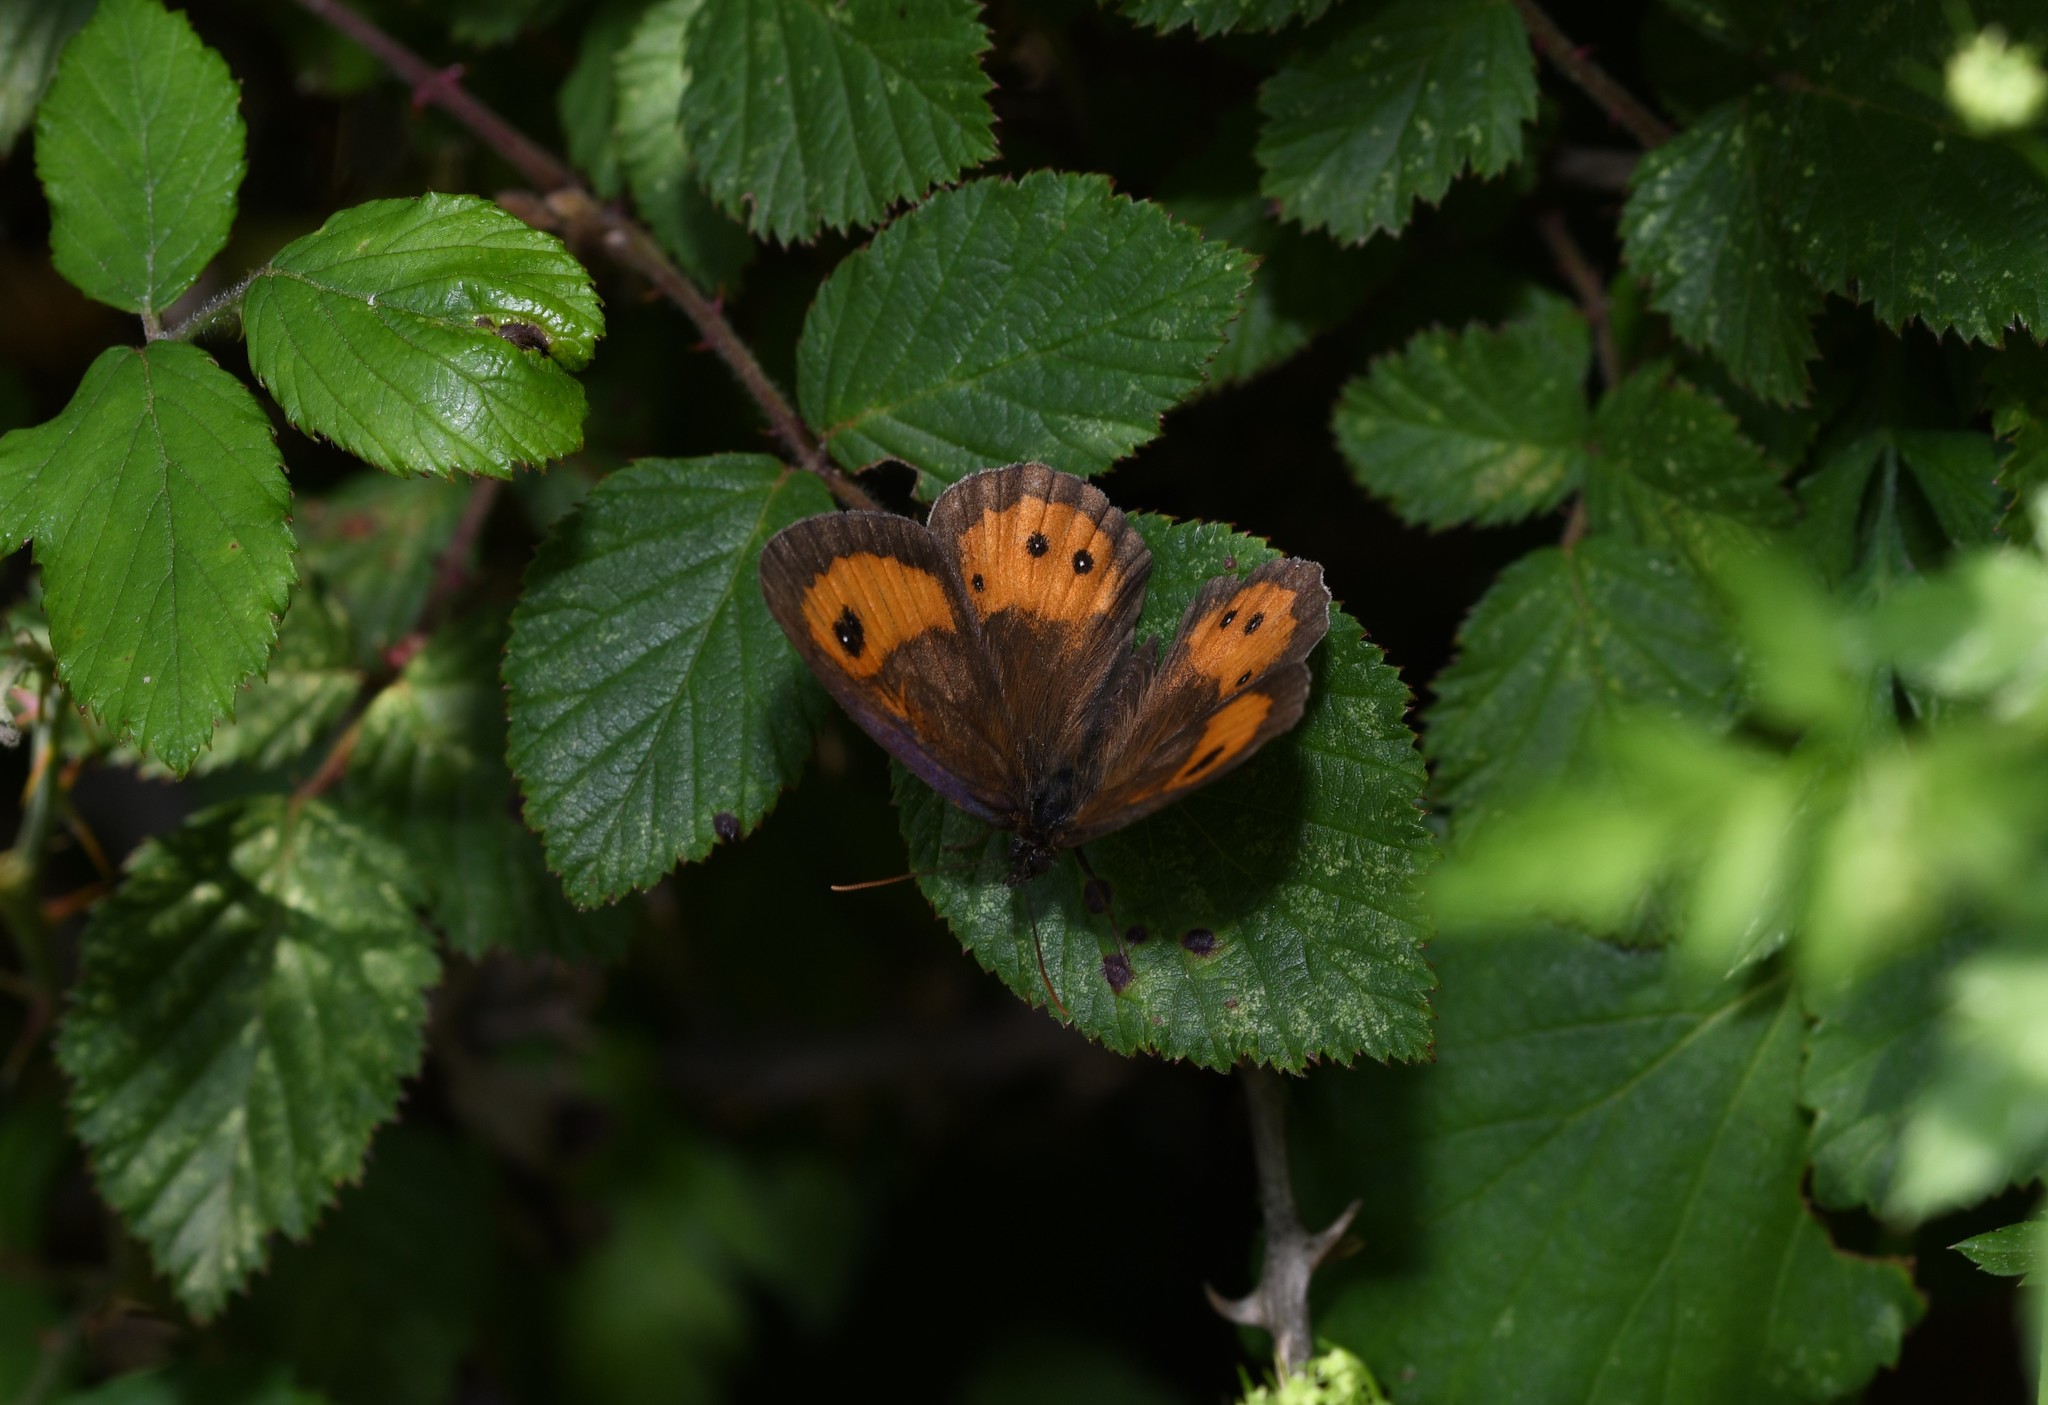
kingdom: Animalia
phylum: Arthropoda
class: Insecta
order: Lepidoptera
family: Nymphalidae
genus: Pyronia
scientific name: Pyronia bathseba
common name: Spanish gatekeeper
